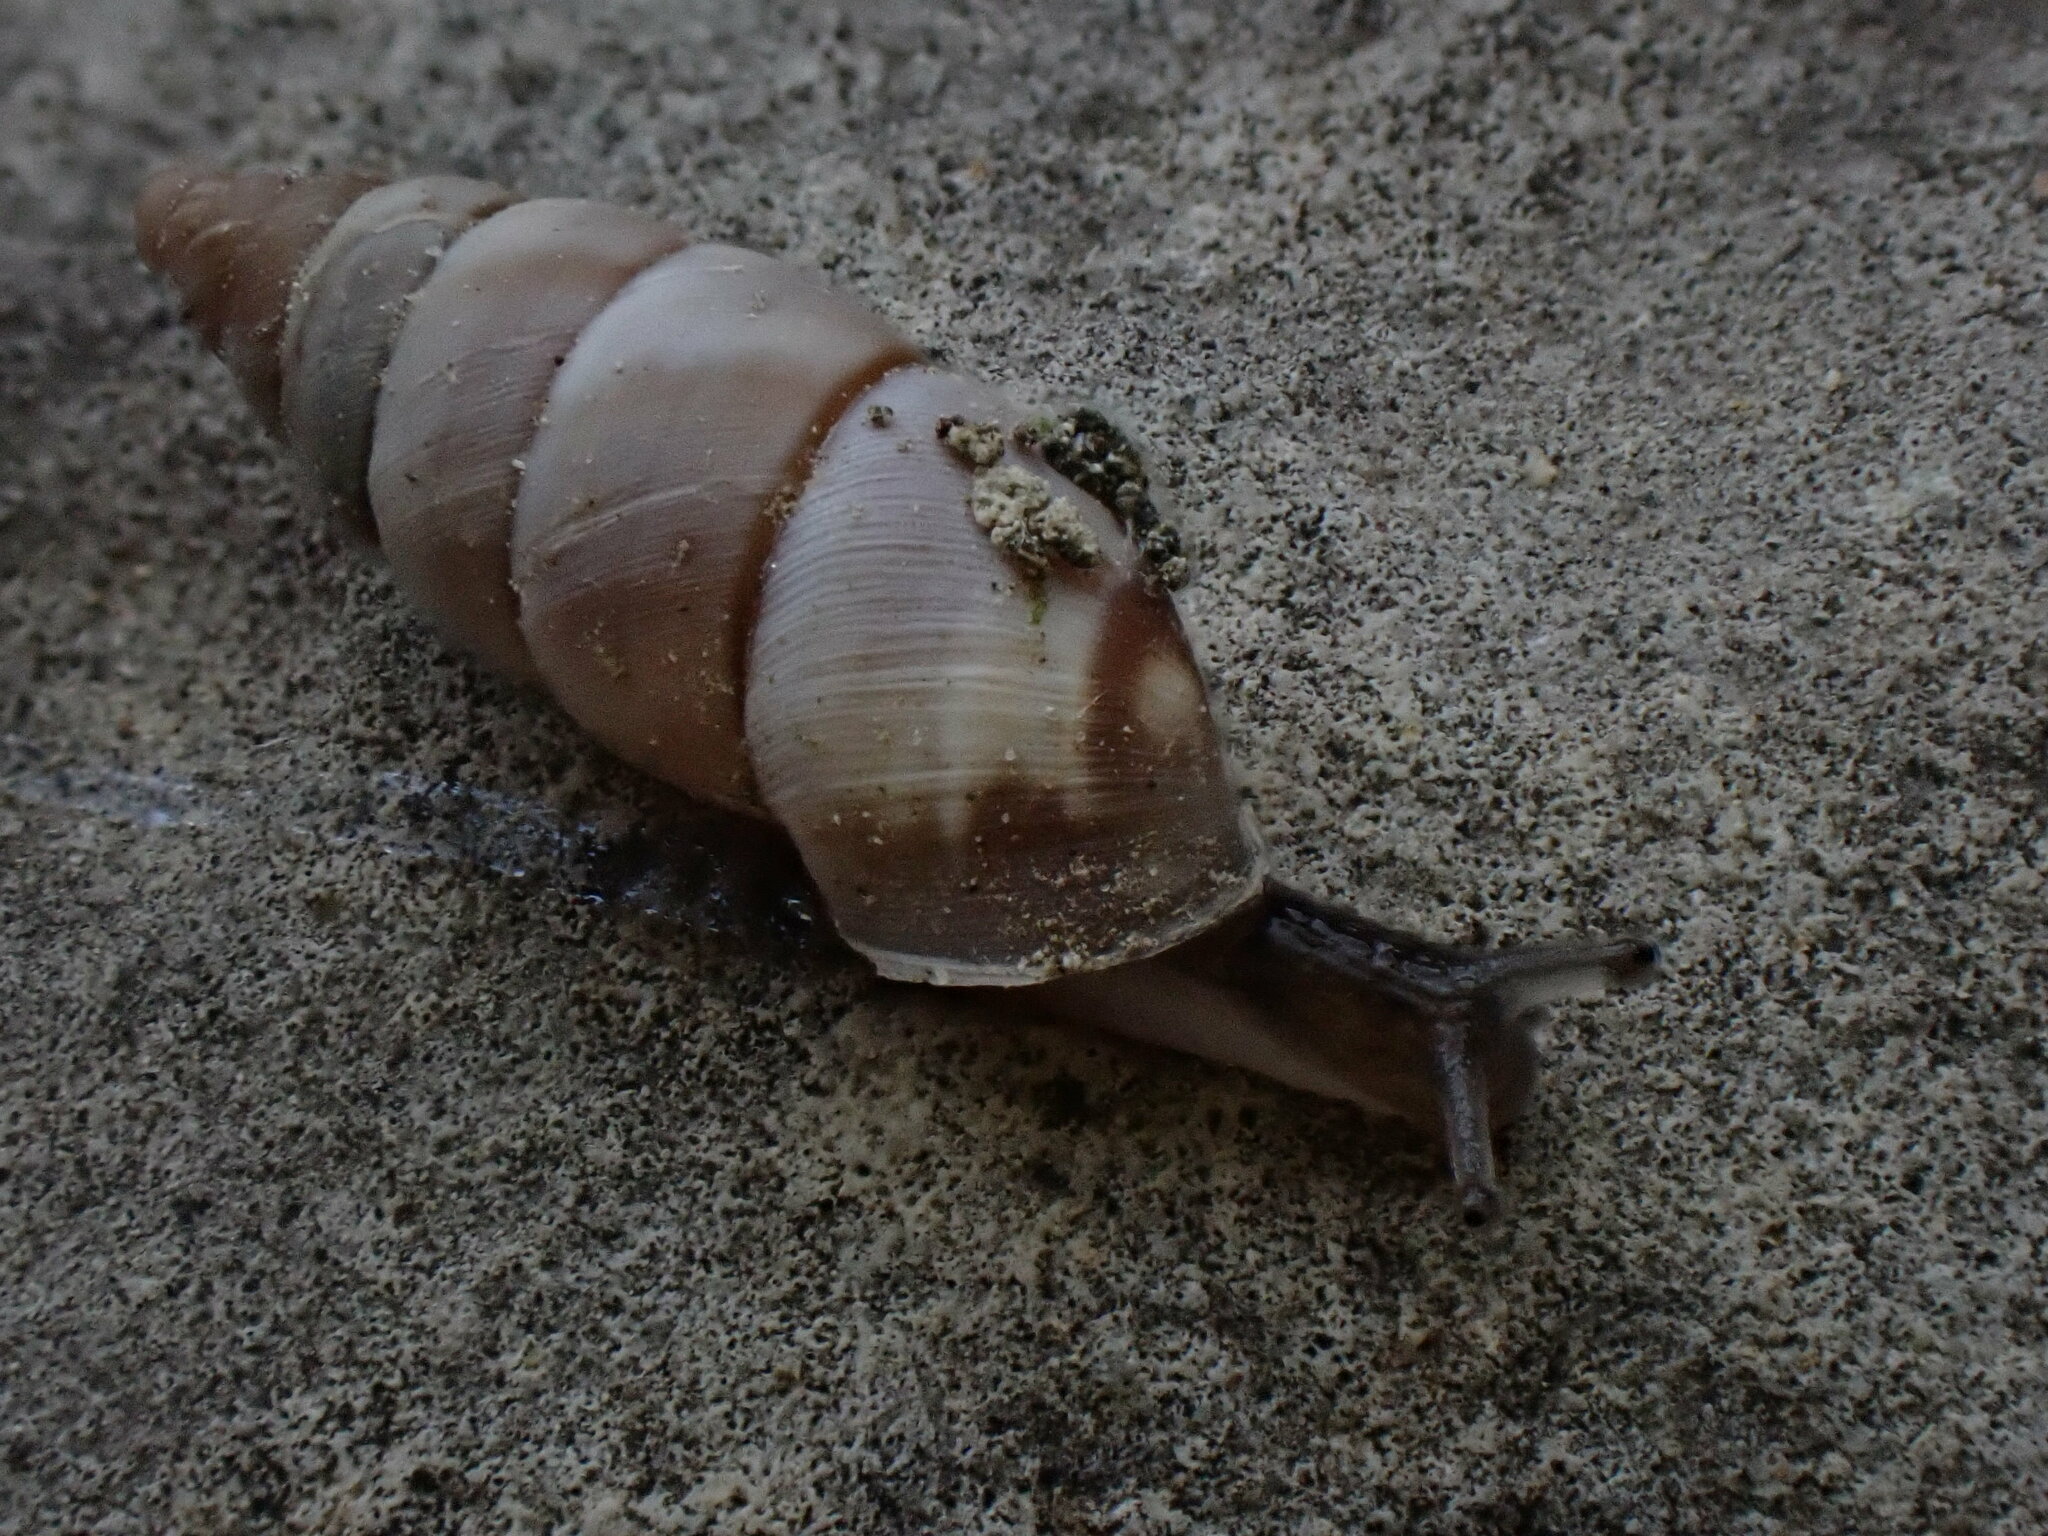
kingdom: Animalia
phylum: Mollusca
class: Gastropoda
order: Stylommatophora
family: Chondrinidae
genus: Solatopupa
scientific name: Solatopupa similis
